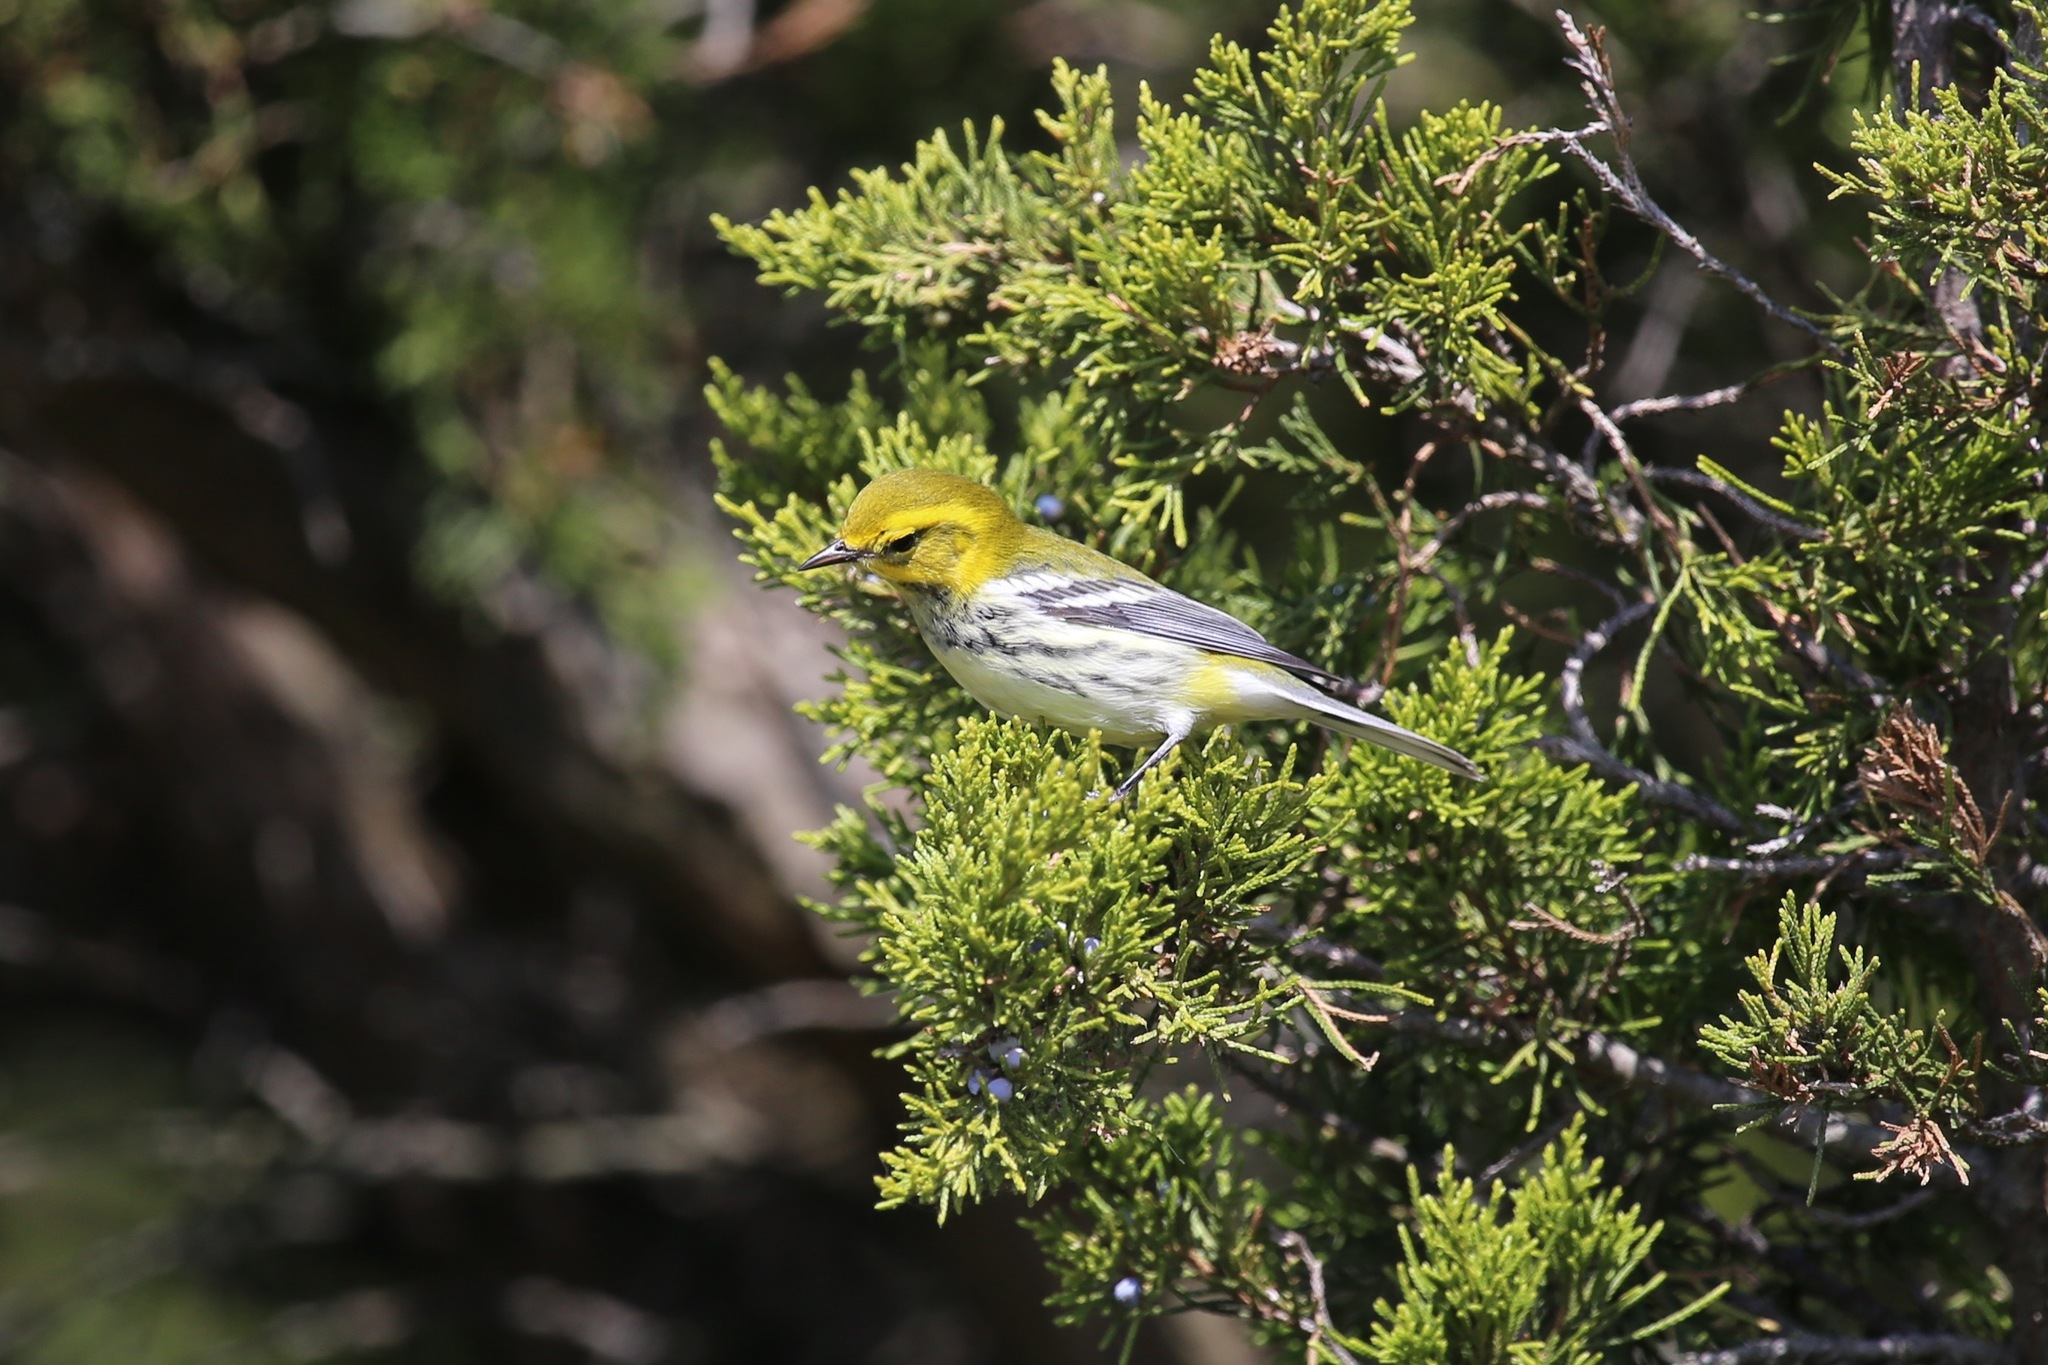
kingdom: Animalia
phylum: Chordata
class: Aves
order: Passeriformes
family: Parulidae
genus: Setophaga
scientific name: Setophaga virens
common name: Black-throated green warbler
